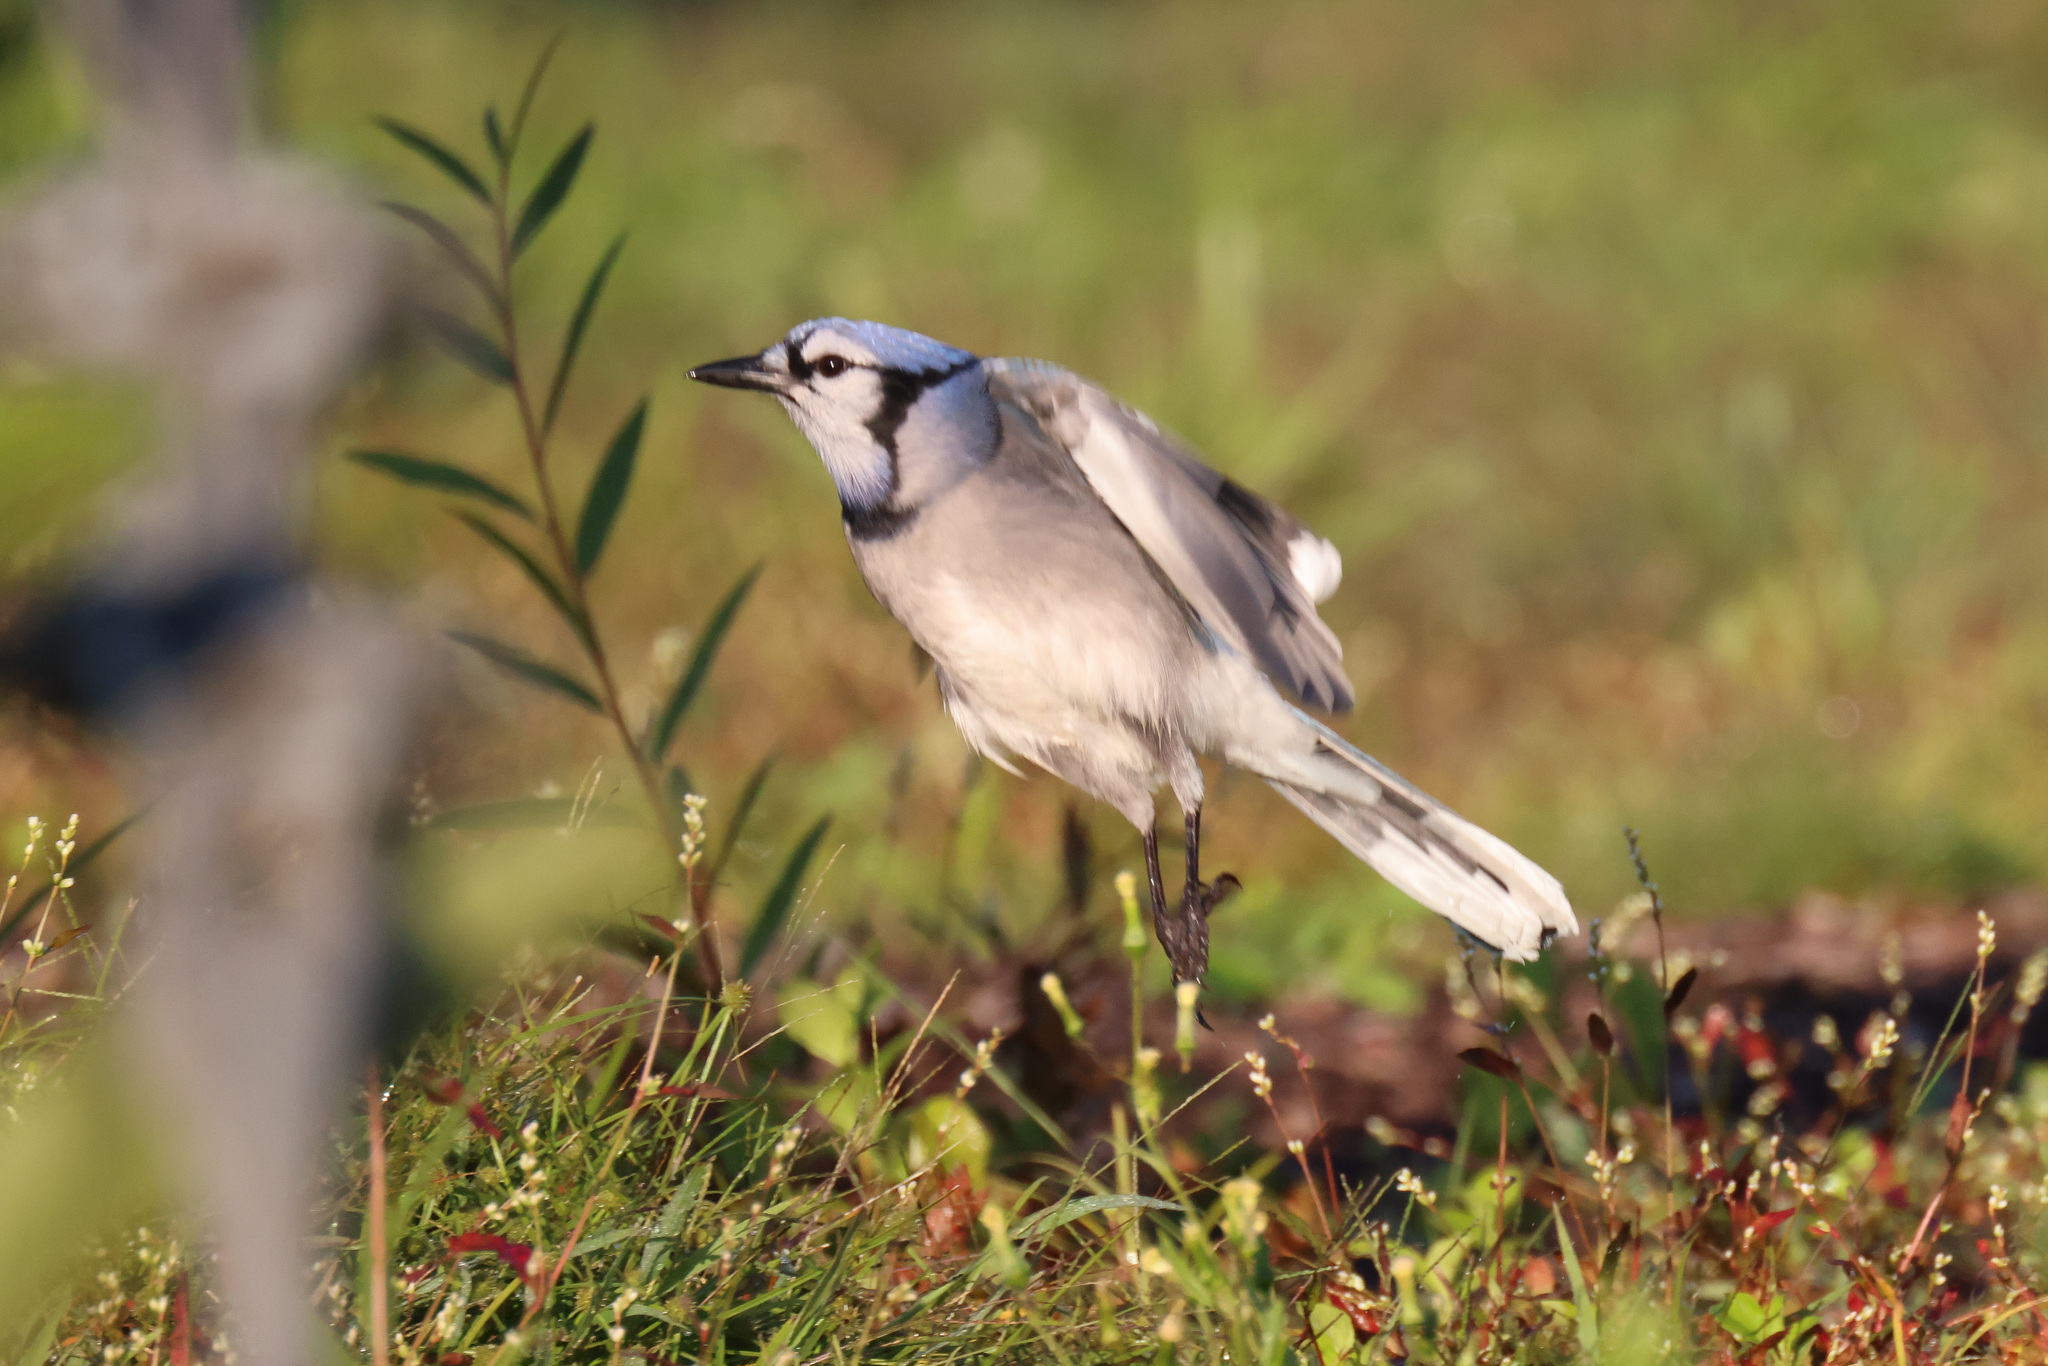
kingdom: Animalia
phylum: Chordata
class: Aves
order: Passeriformes
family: Corvidae
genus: Cyanocitta
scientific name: Cyanocitta cristata
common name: Blue jay
